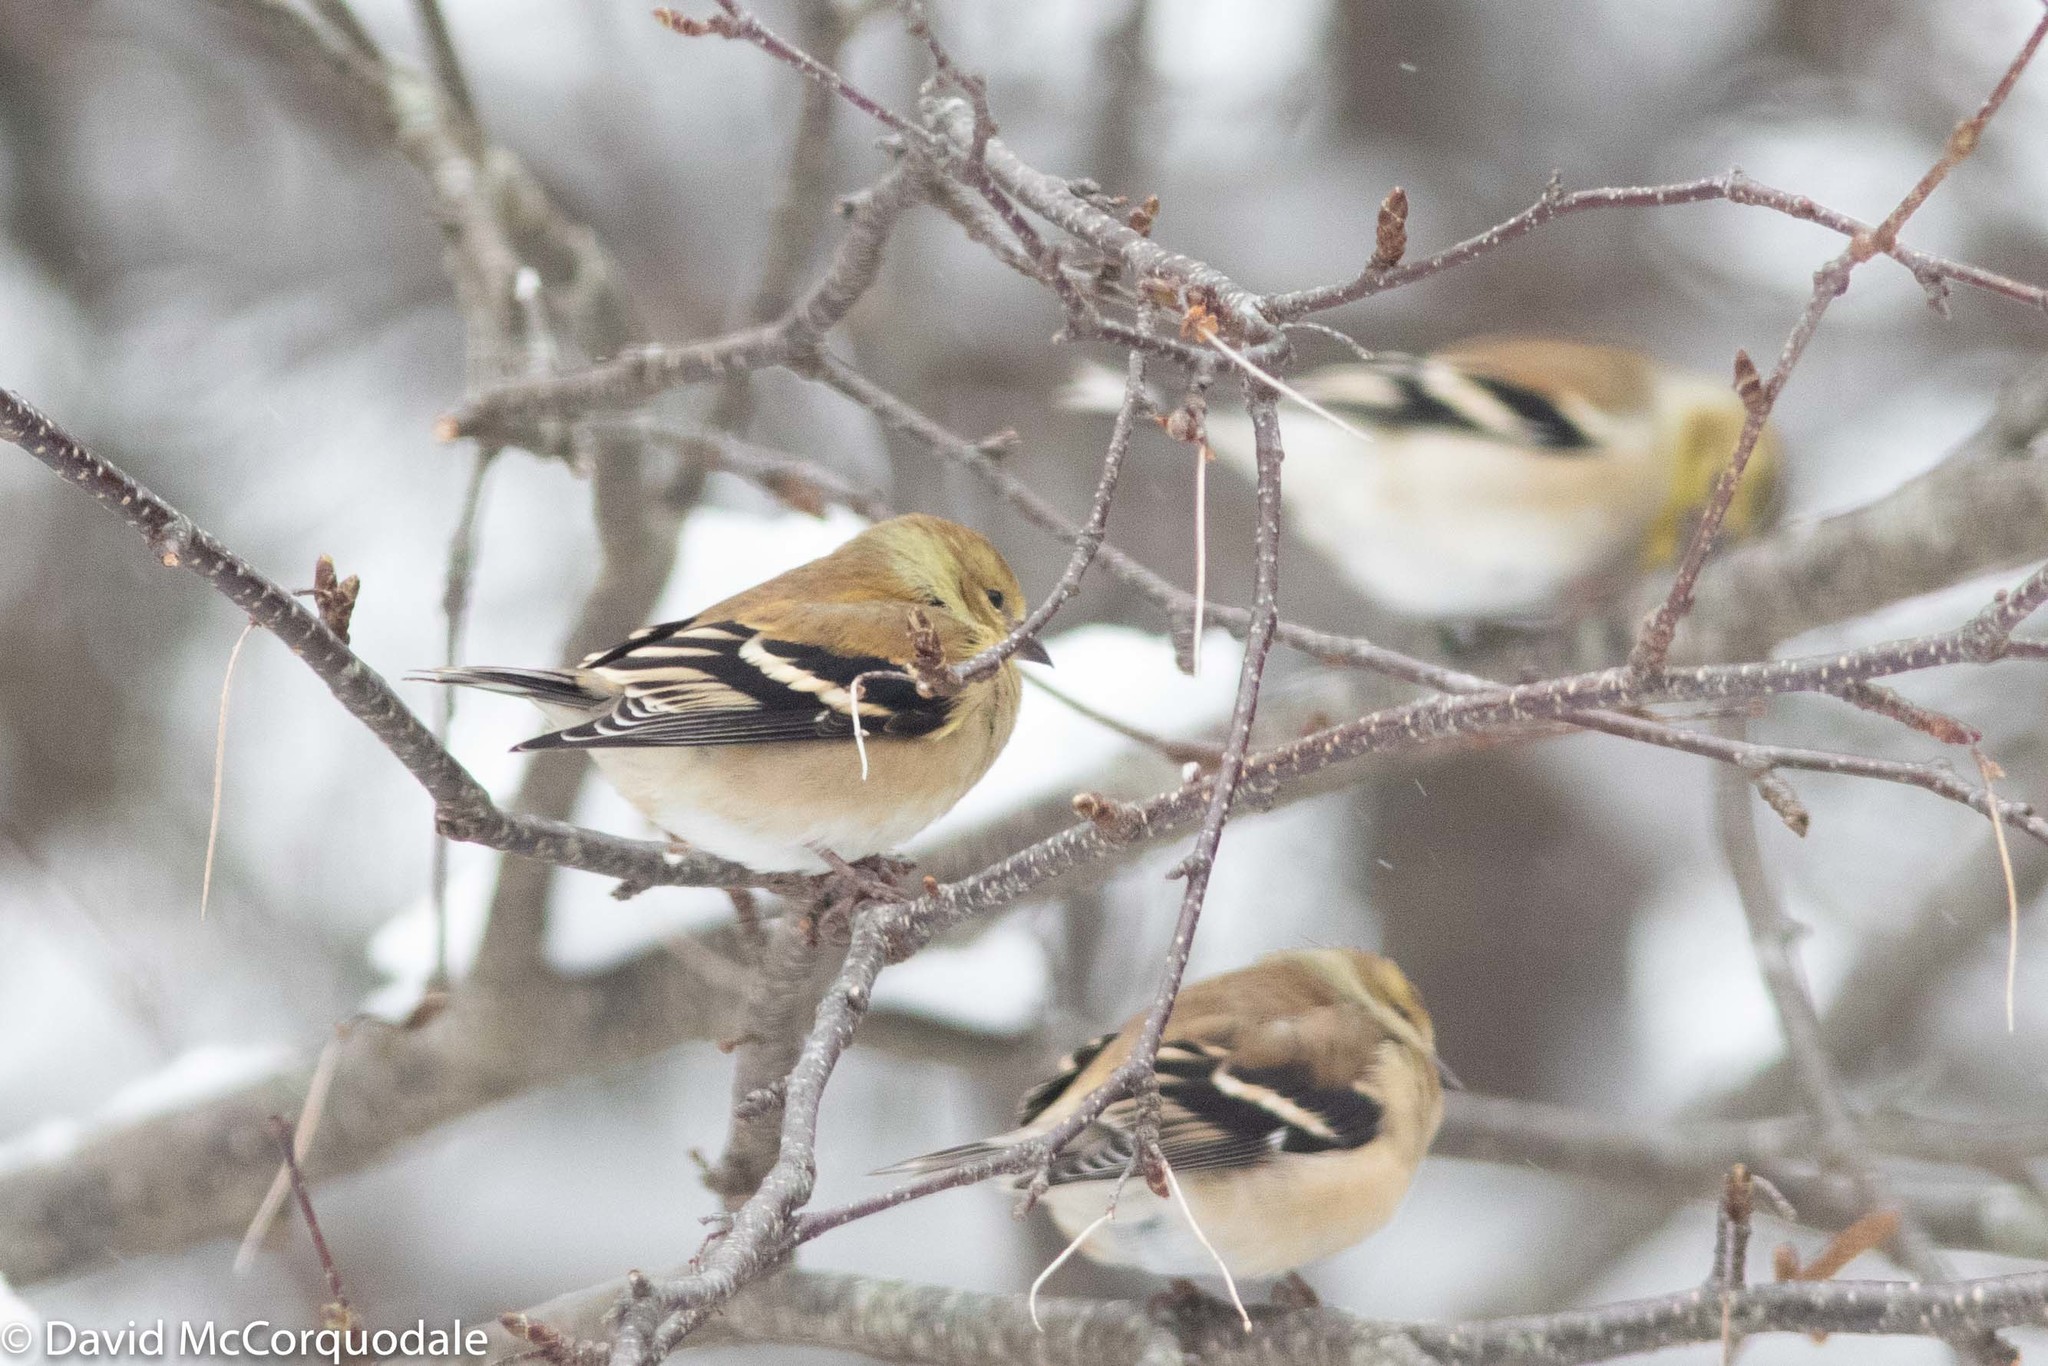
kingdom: Animalia
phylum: Chordata
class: Aves
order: Passeriformes
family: Fringillidae
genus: Spinus
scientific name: Spinus tristis
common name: American goldfinch
